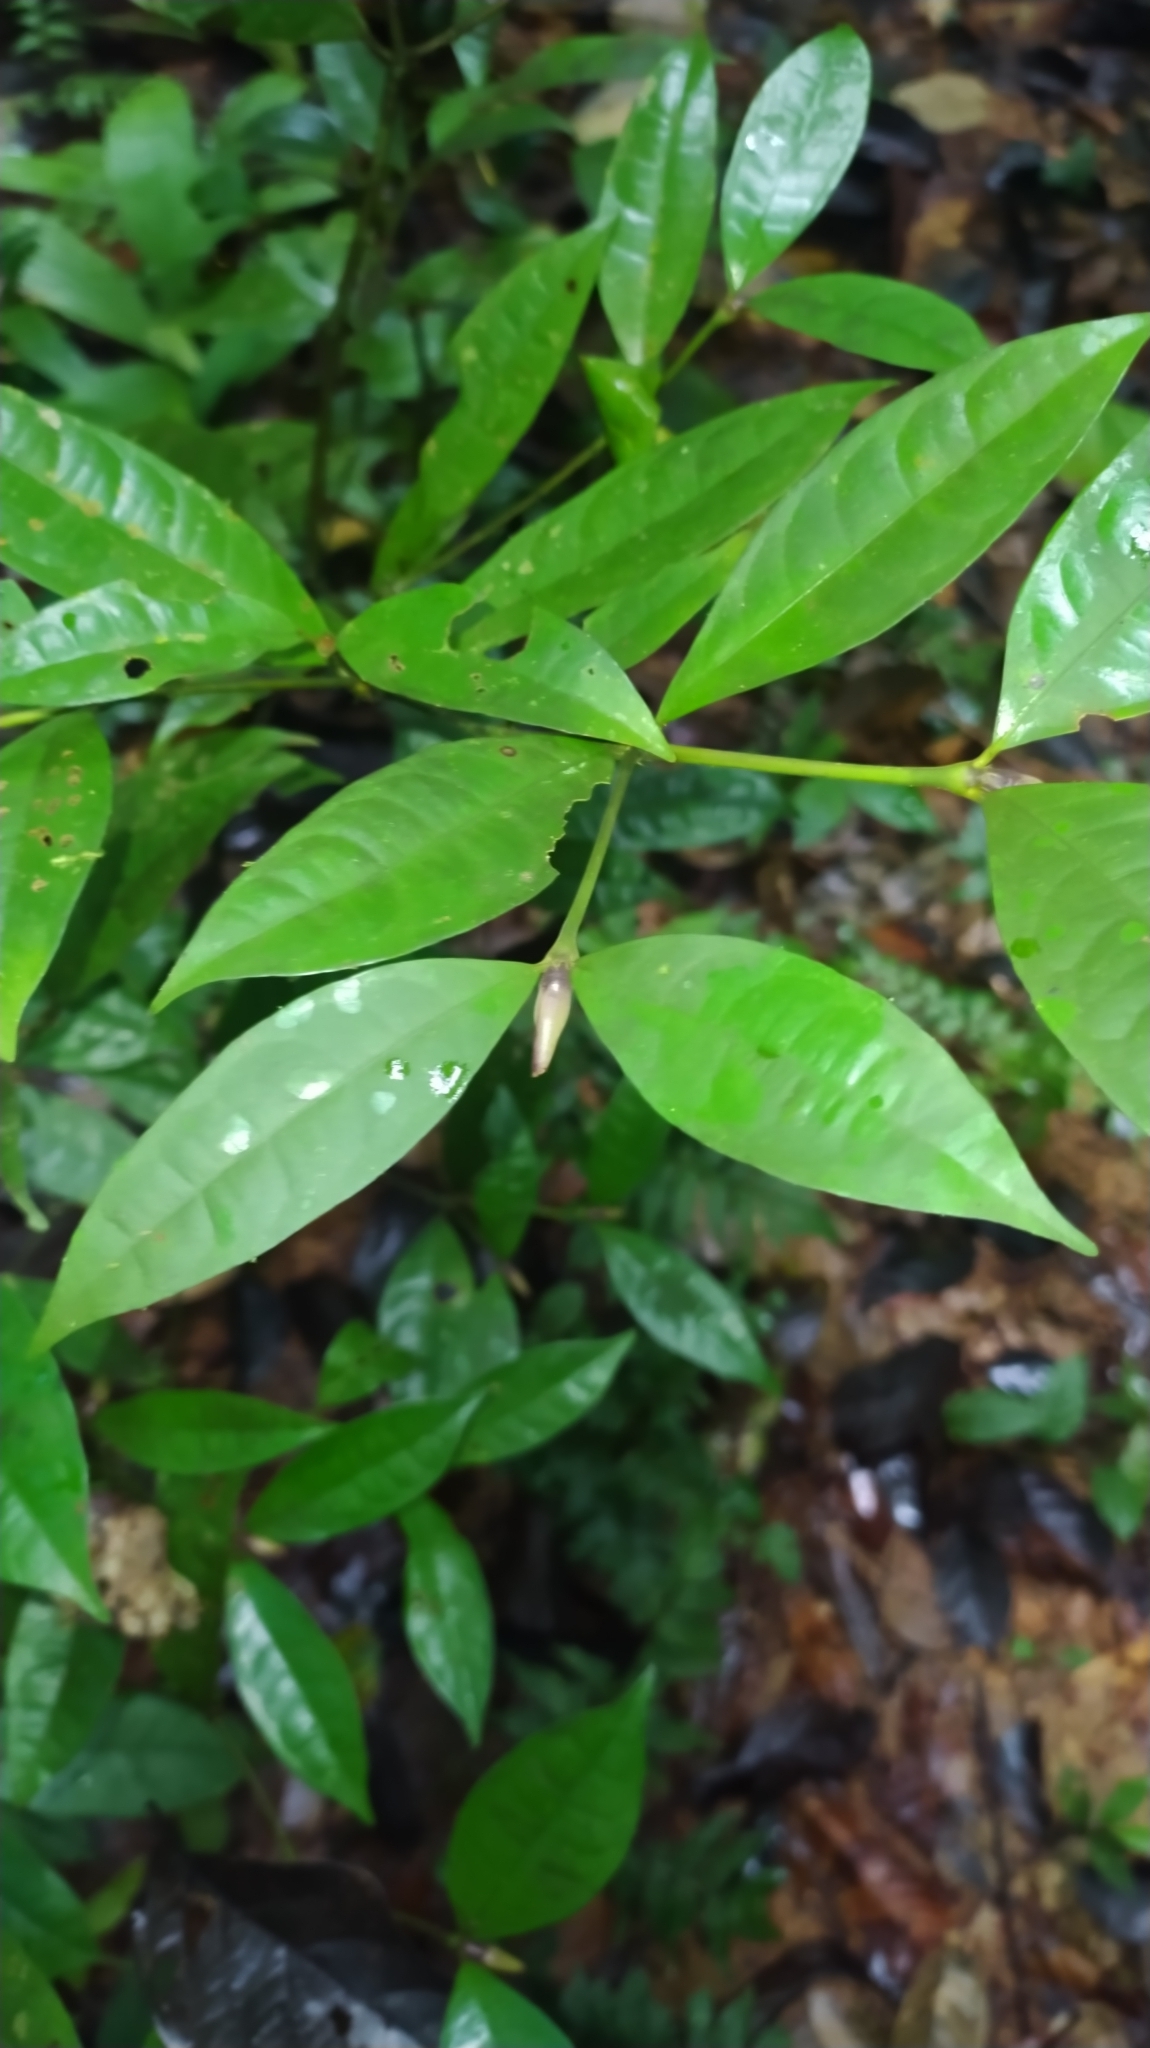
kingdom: Plantae
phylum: Tracheophyta
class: Magnoliopsida
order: Gentianales
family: Rubiaceae
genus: Palicourea
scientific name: Palicourea oblonga
